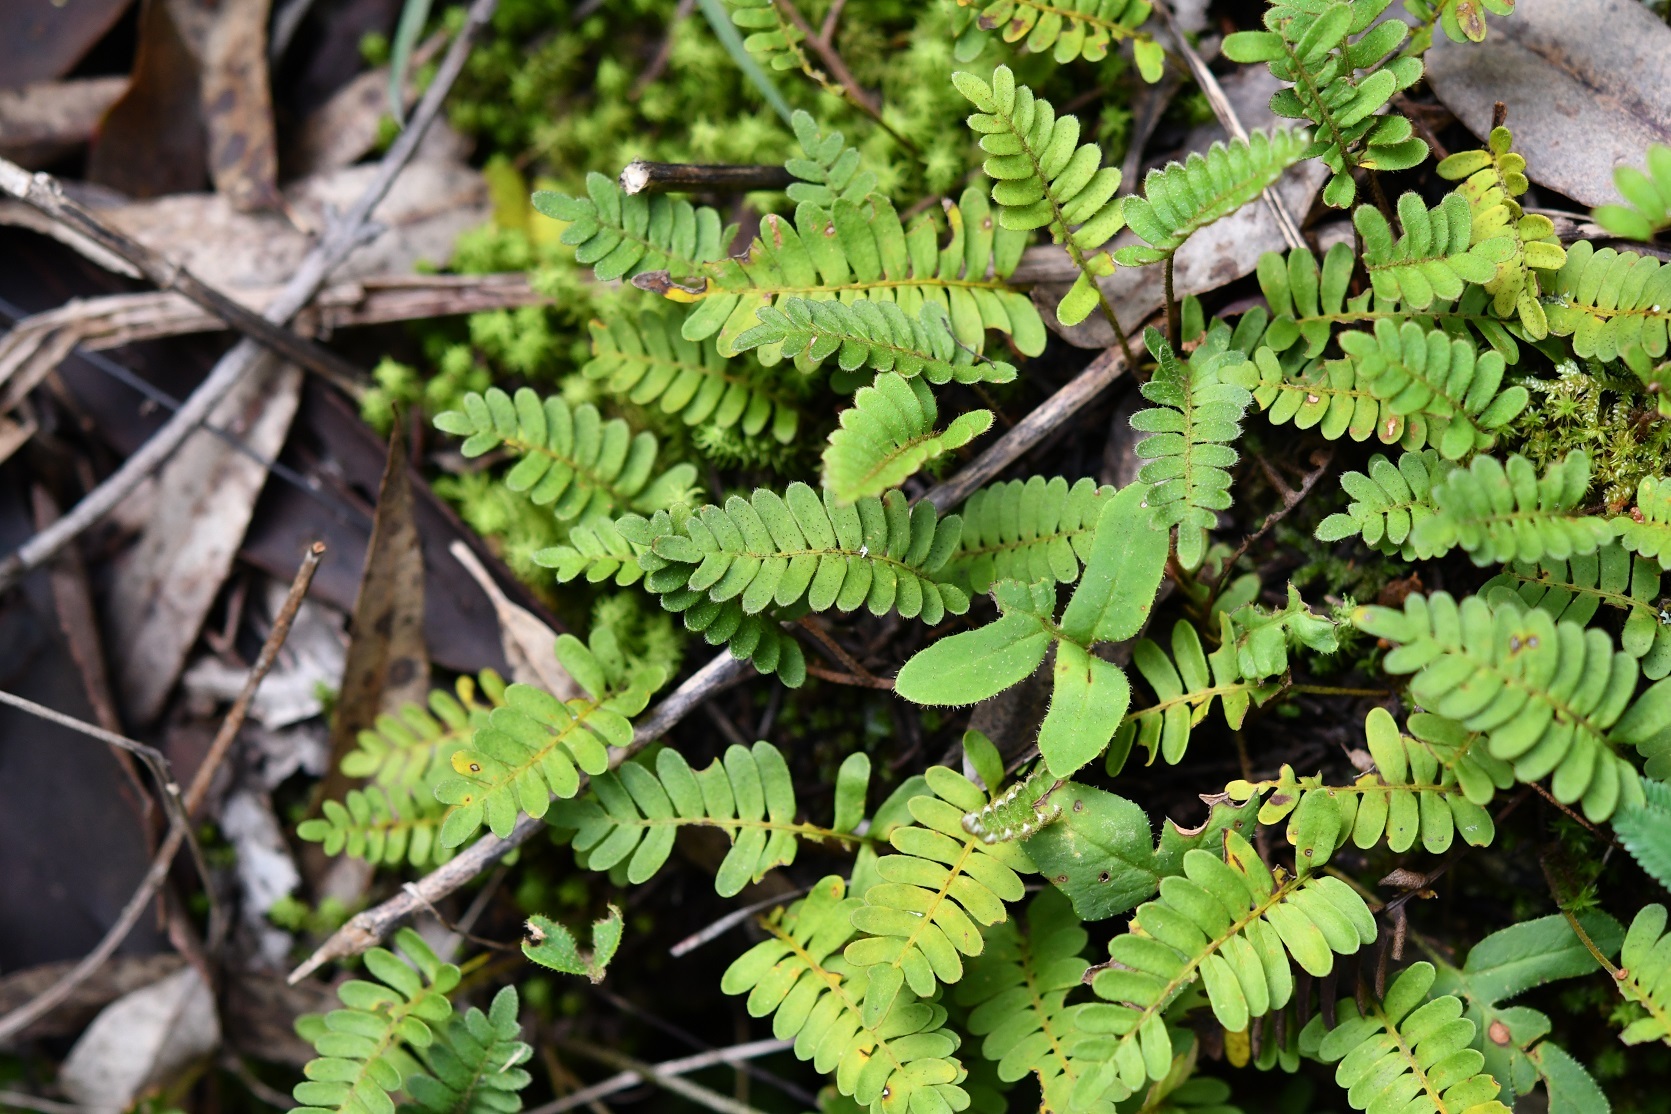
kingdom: Plantae
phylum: Tracheophyta
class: Polypodiopsida
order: Polypodiales
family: Polypodiaceae
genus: Pleopeltis
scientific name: Pleopeltis polypodioides
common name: Resurrection fern
